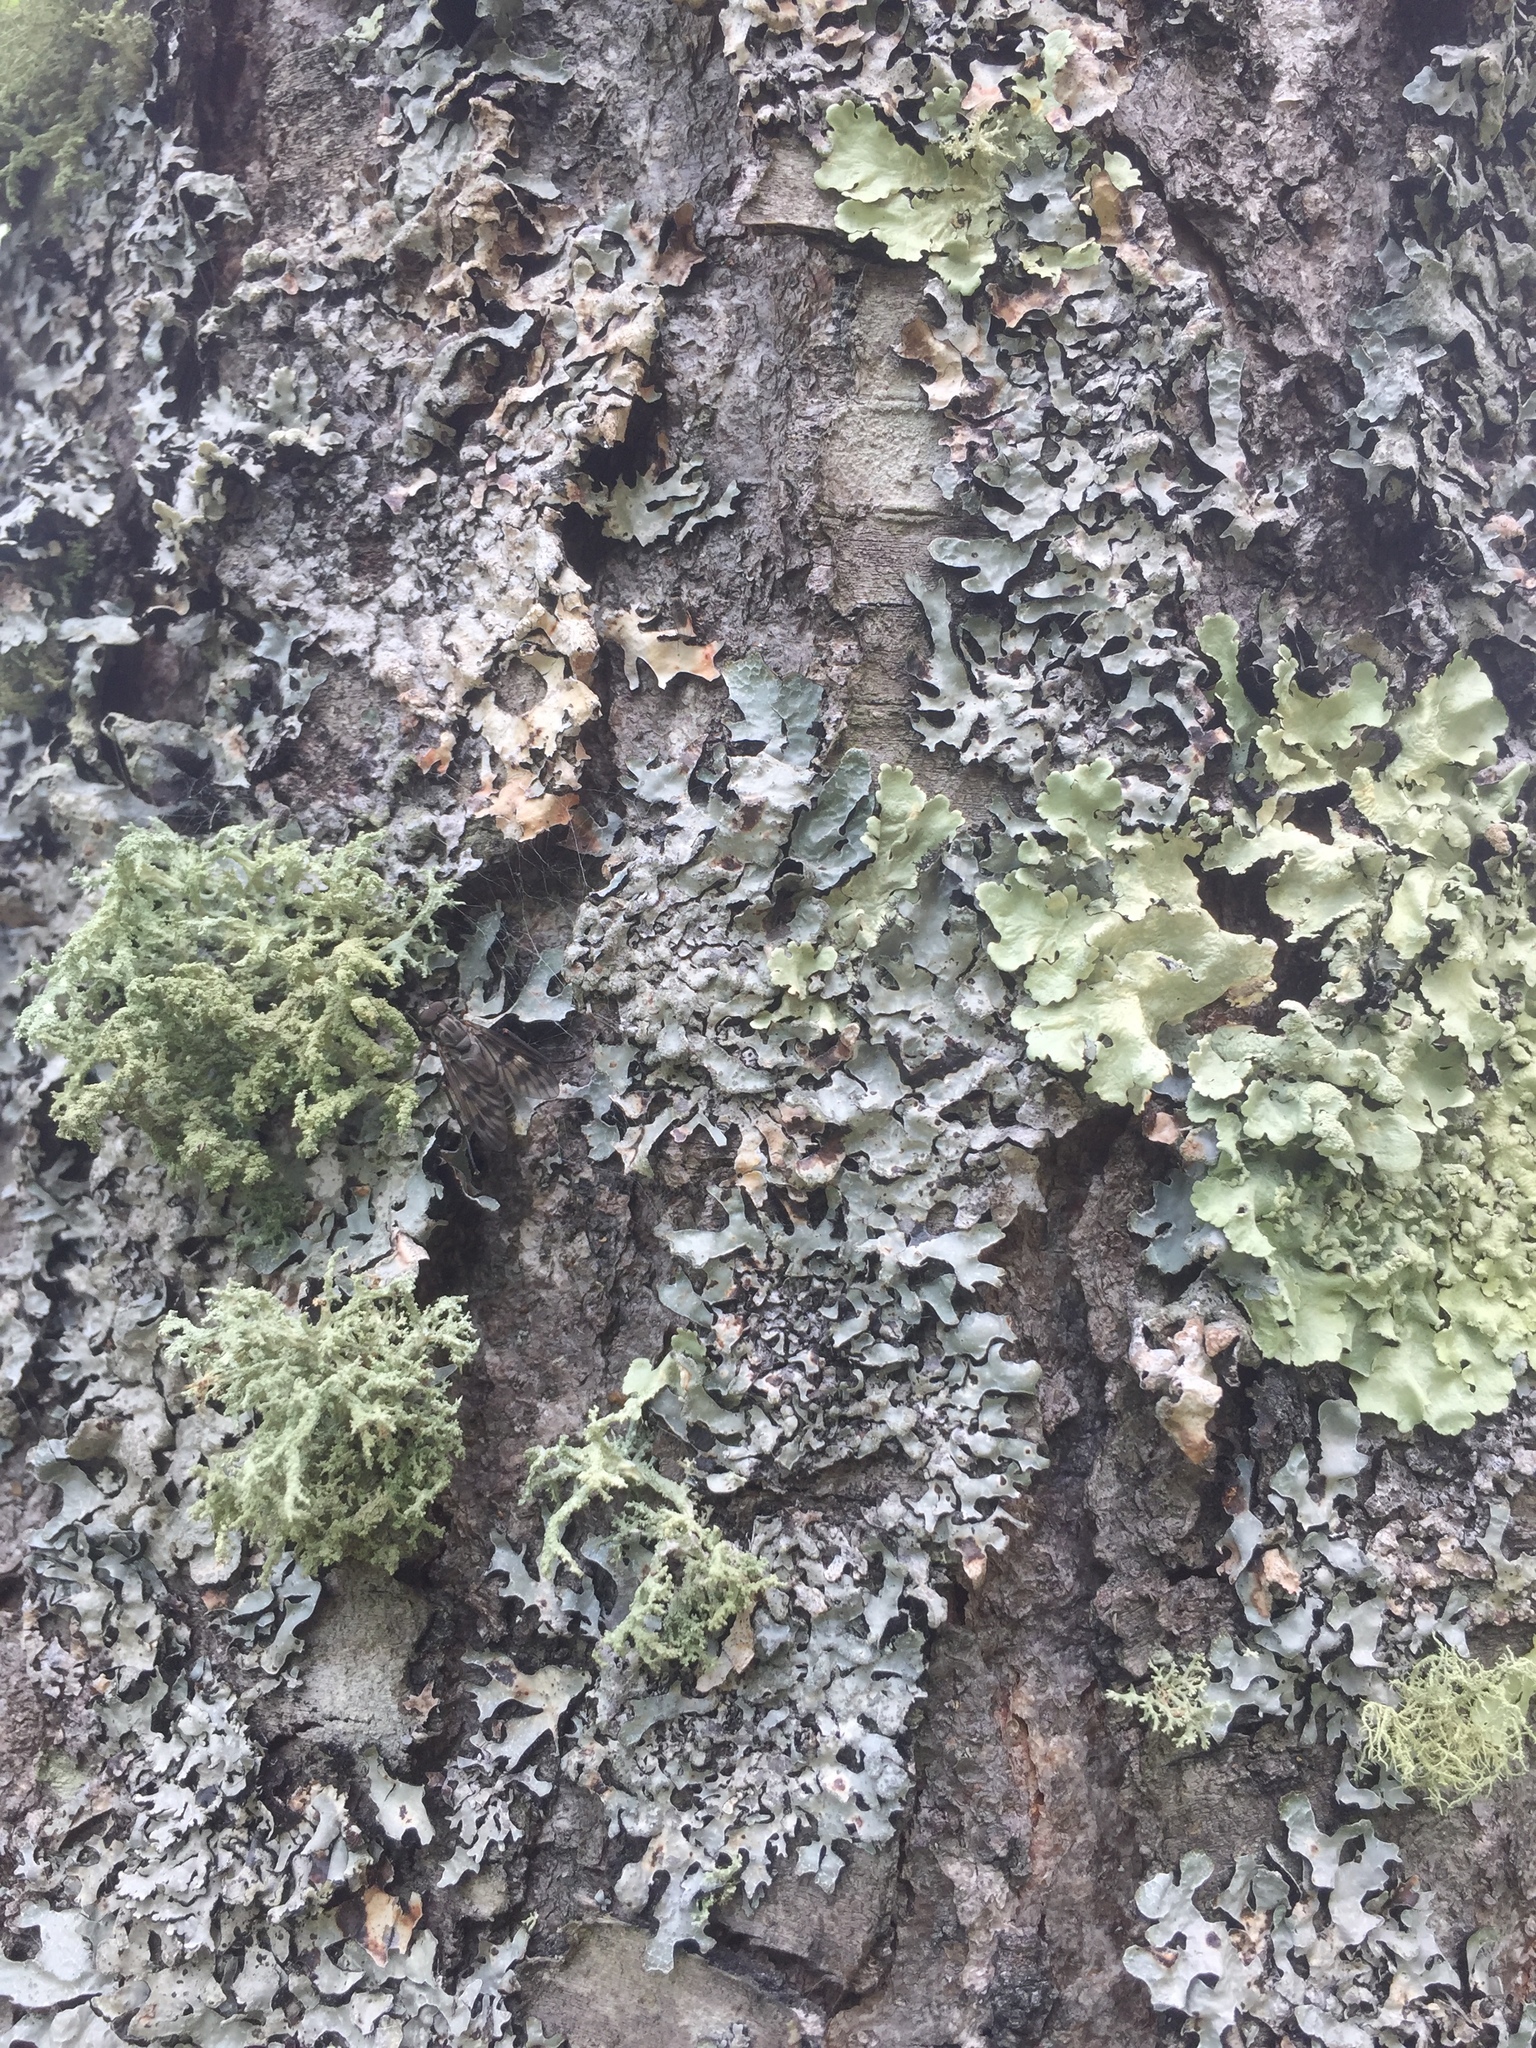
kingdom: Fungi
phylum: Ascomycota
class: Lecanoromycetes
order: Lecanorales
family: Parmeliaceae
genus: Flavoparmelia
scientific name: Flavoparmelia caperata
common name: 40-mile per hour lichen
